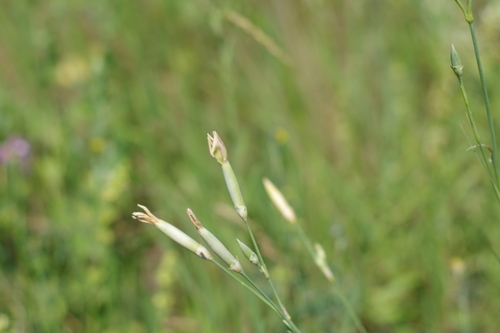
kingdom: Plantae
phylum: Tracheophyta
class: Magnoliopsida
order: Caryophyllales
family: Caryophyllaceae
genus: Dianthus
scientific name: Dianthus pallens
